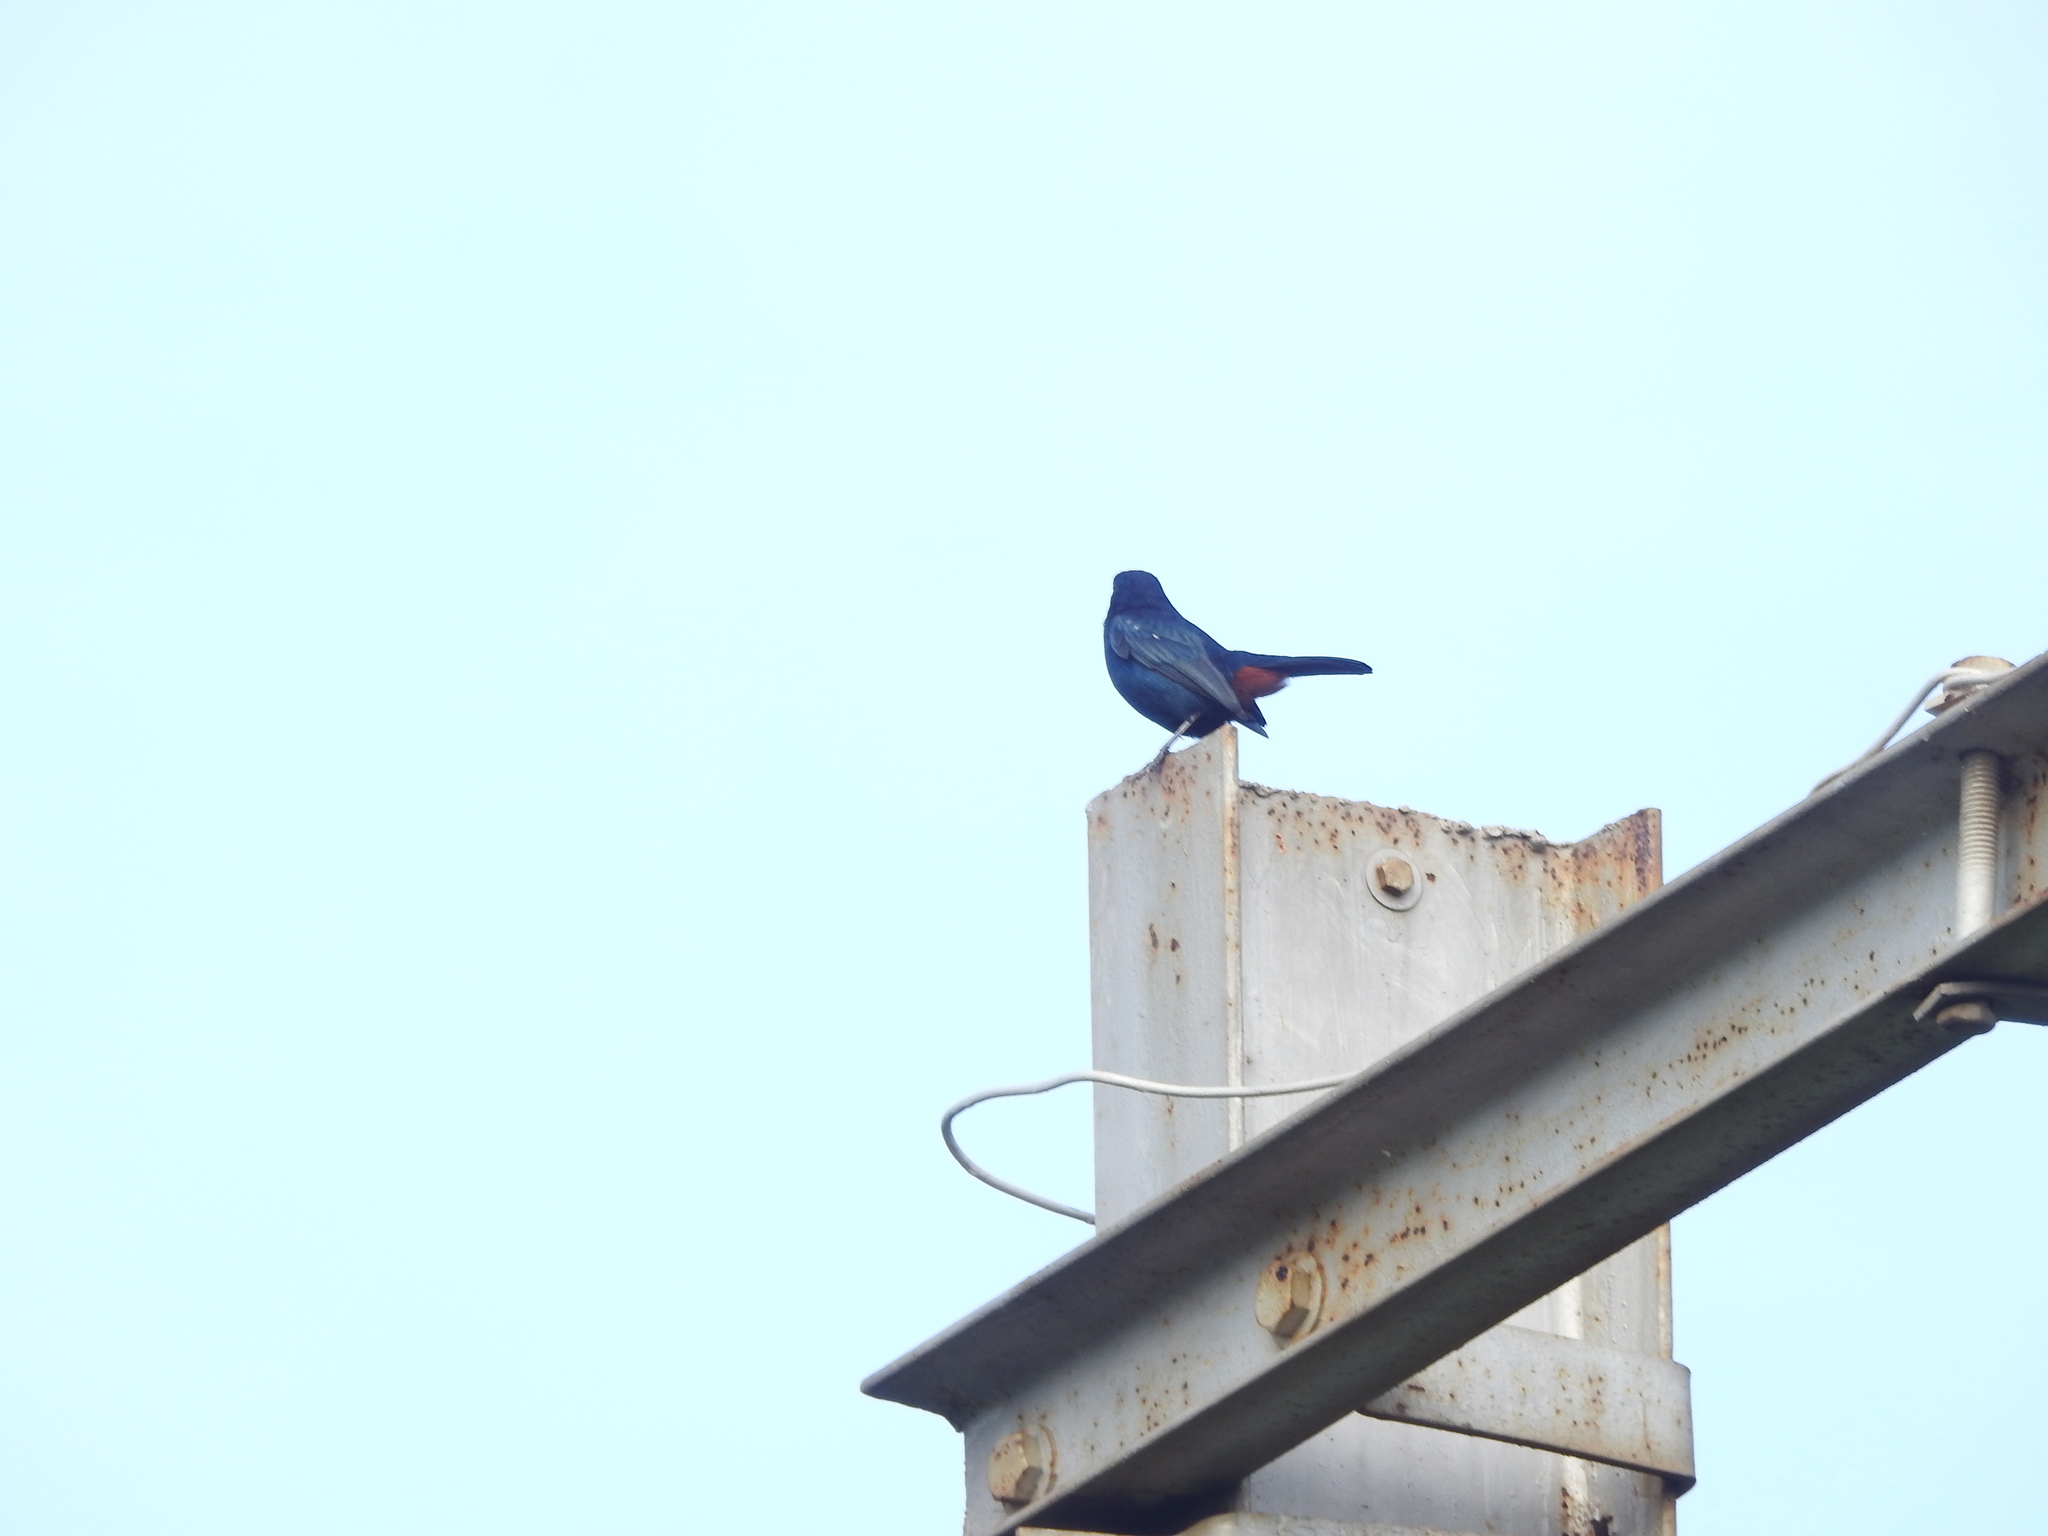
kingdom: Animalia
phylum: Chordata
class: Aves
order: Passeriformes
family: Muscicapidae
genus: Saxicoloides
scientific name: Saxicoloides fulicatus
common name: Indian robin
